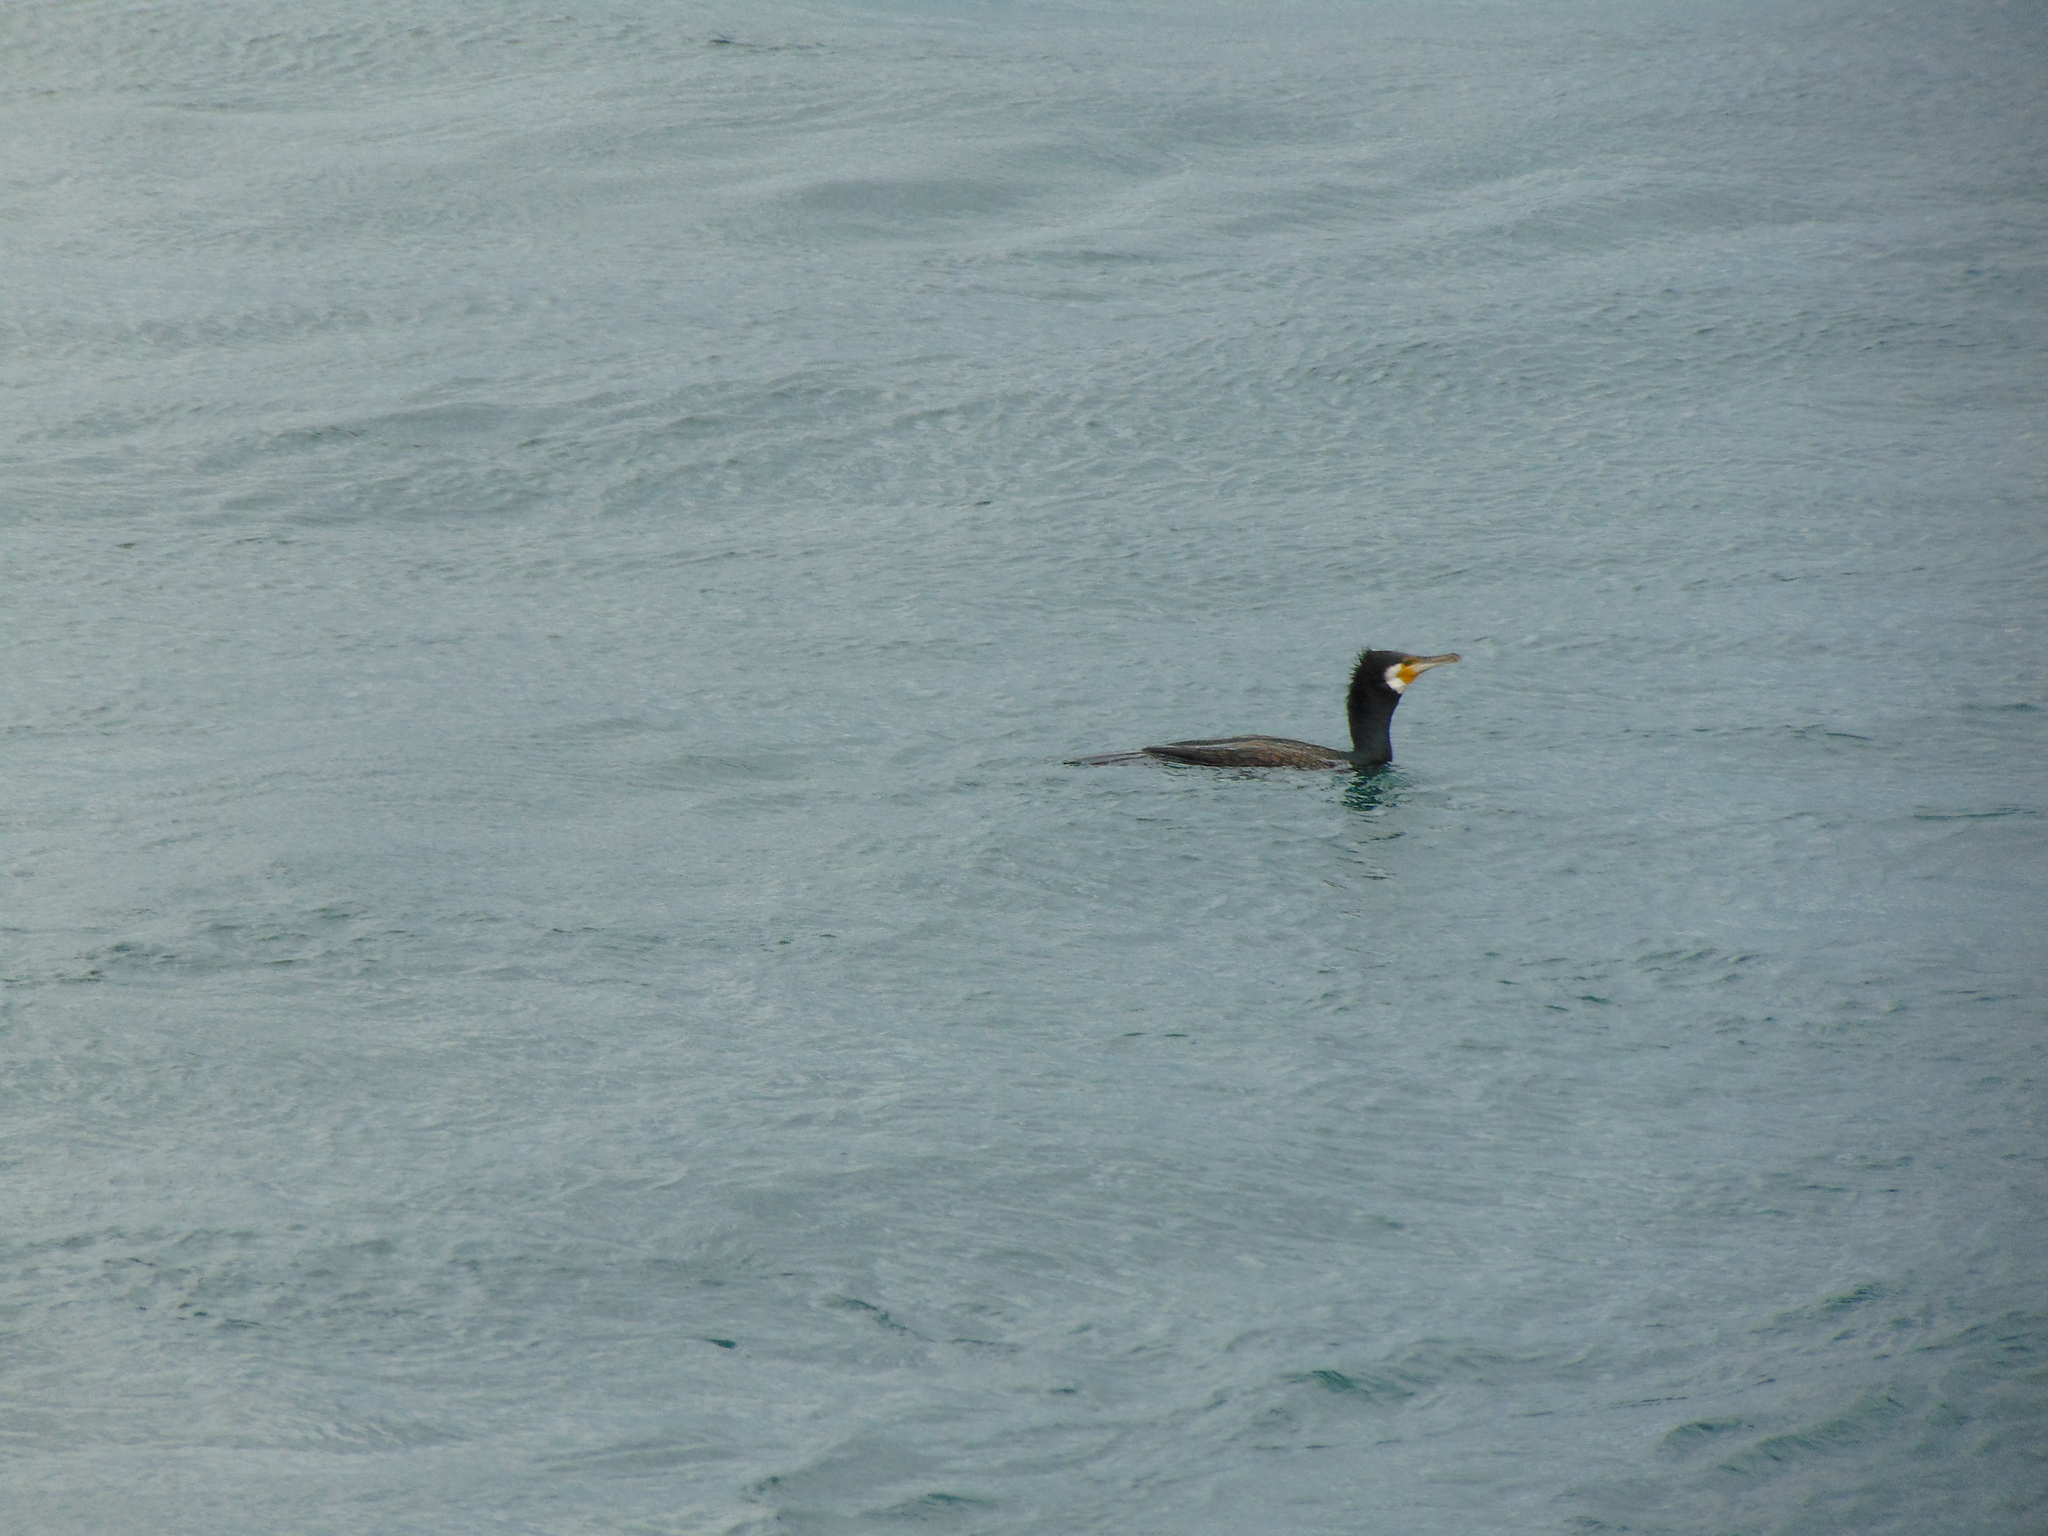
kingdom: Animalia
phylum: Chordata
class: Aves
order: Suliformes
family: Phalacrocoracidae
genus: Phalacrocorax
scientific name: Phalacrocorax carbo
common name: Great cormorant
